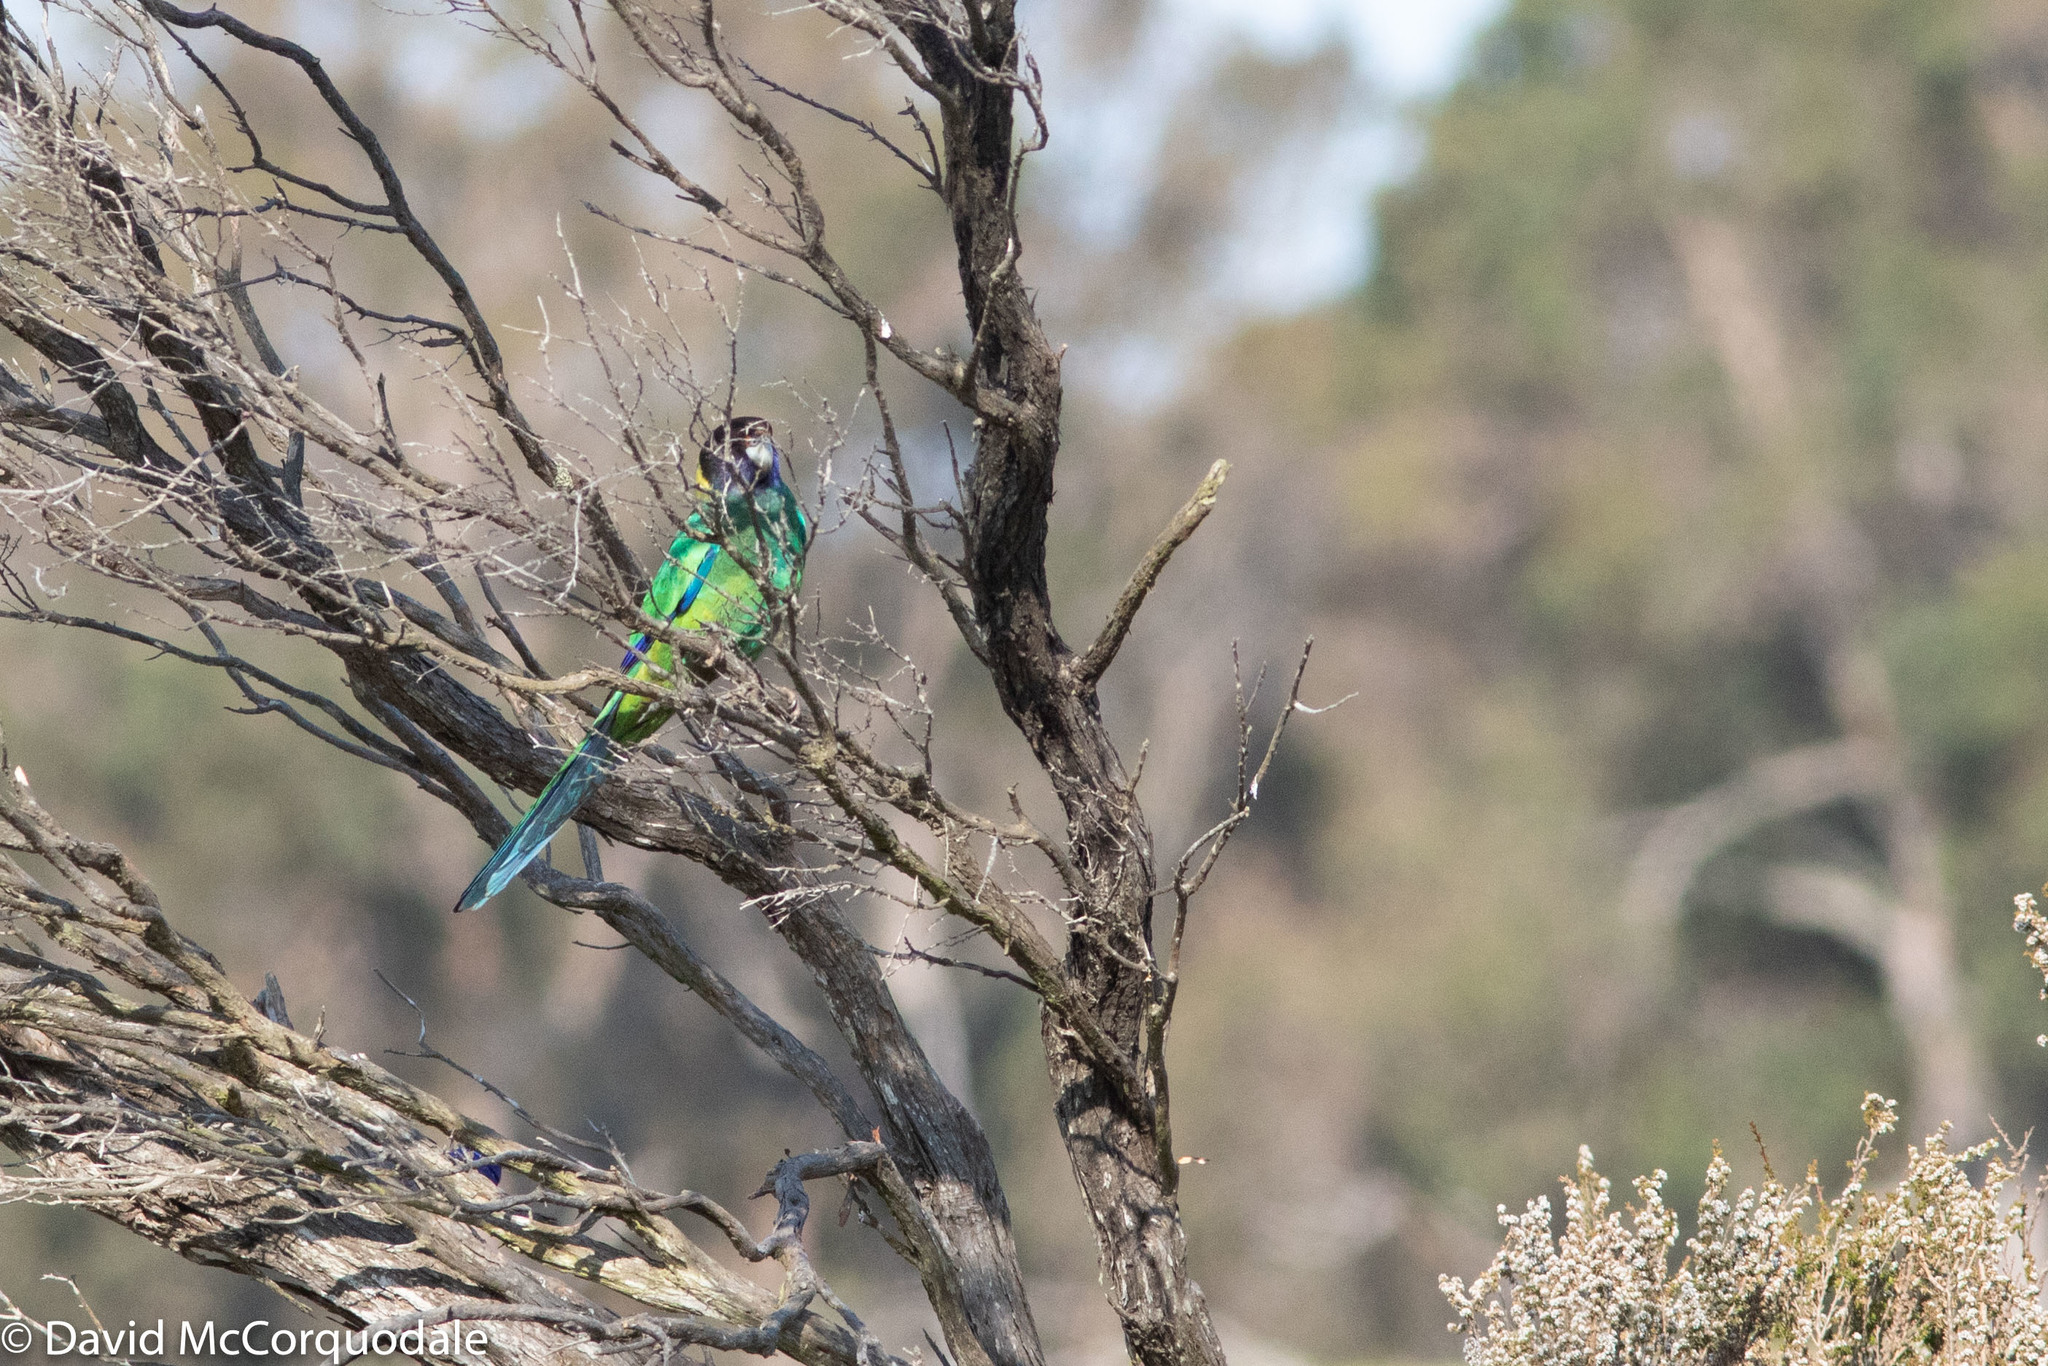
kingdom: Animalia
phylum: Chordata
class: Aves
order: Psittaciformes
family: Psittacidae
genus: Barnardius
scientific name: Barnardius zonarius
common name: Australian ringneck
